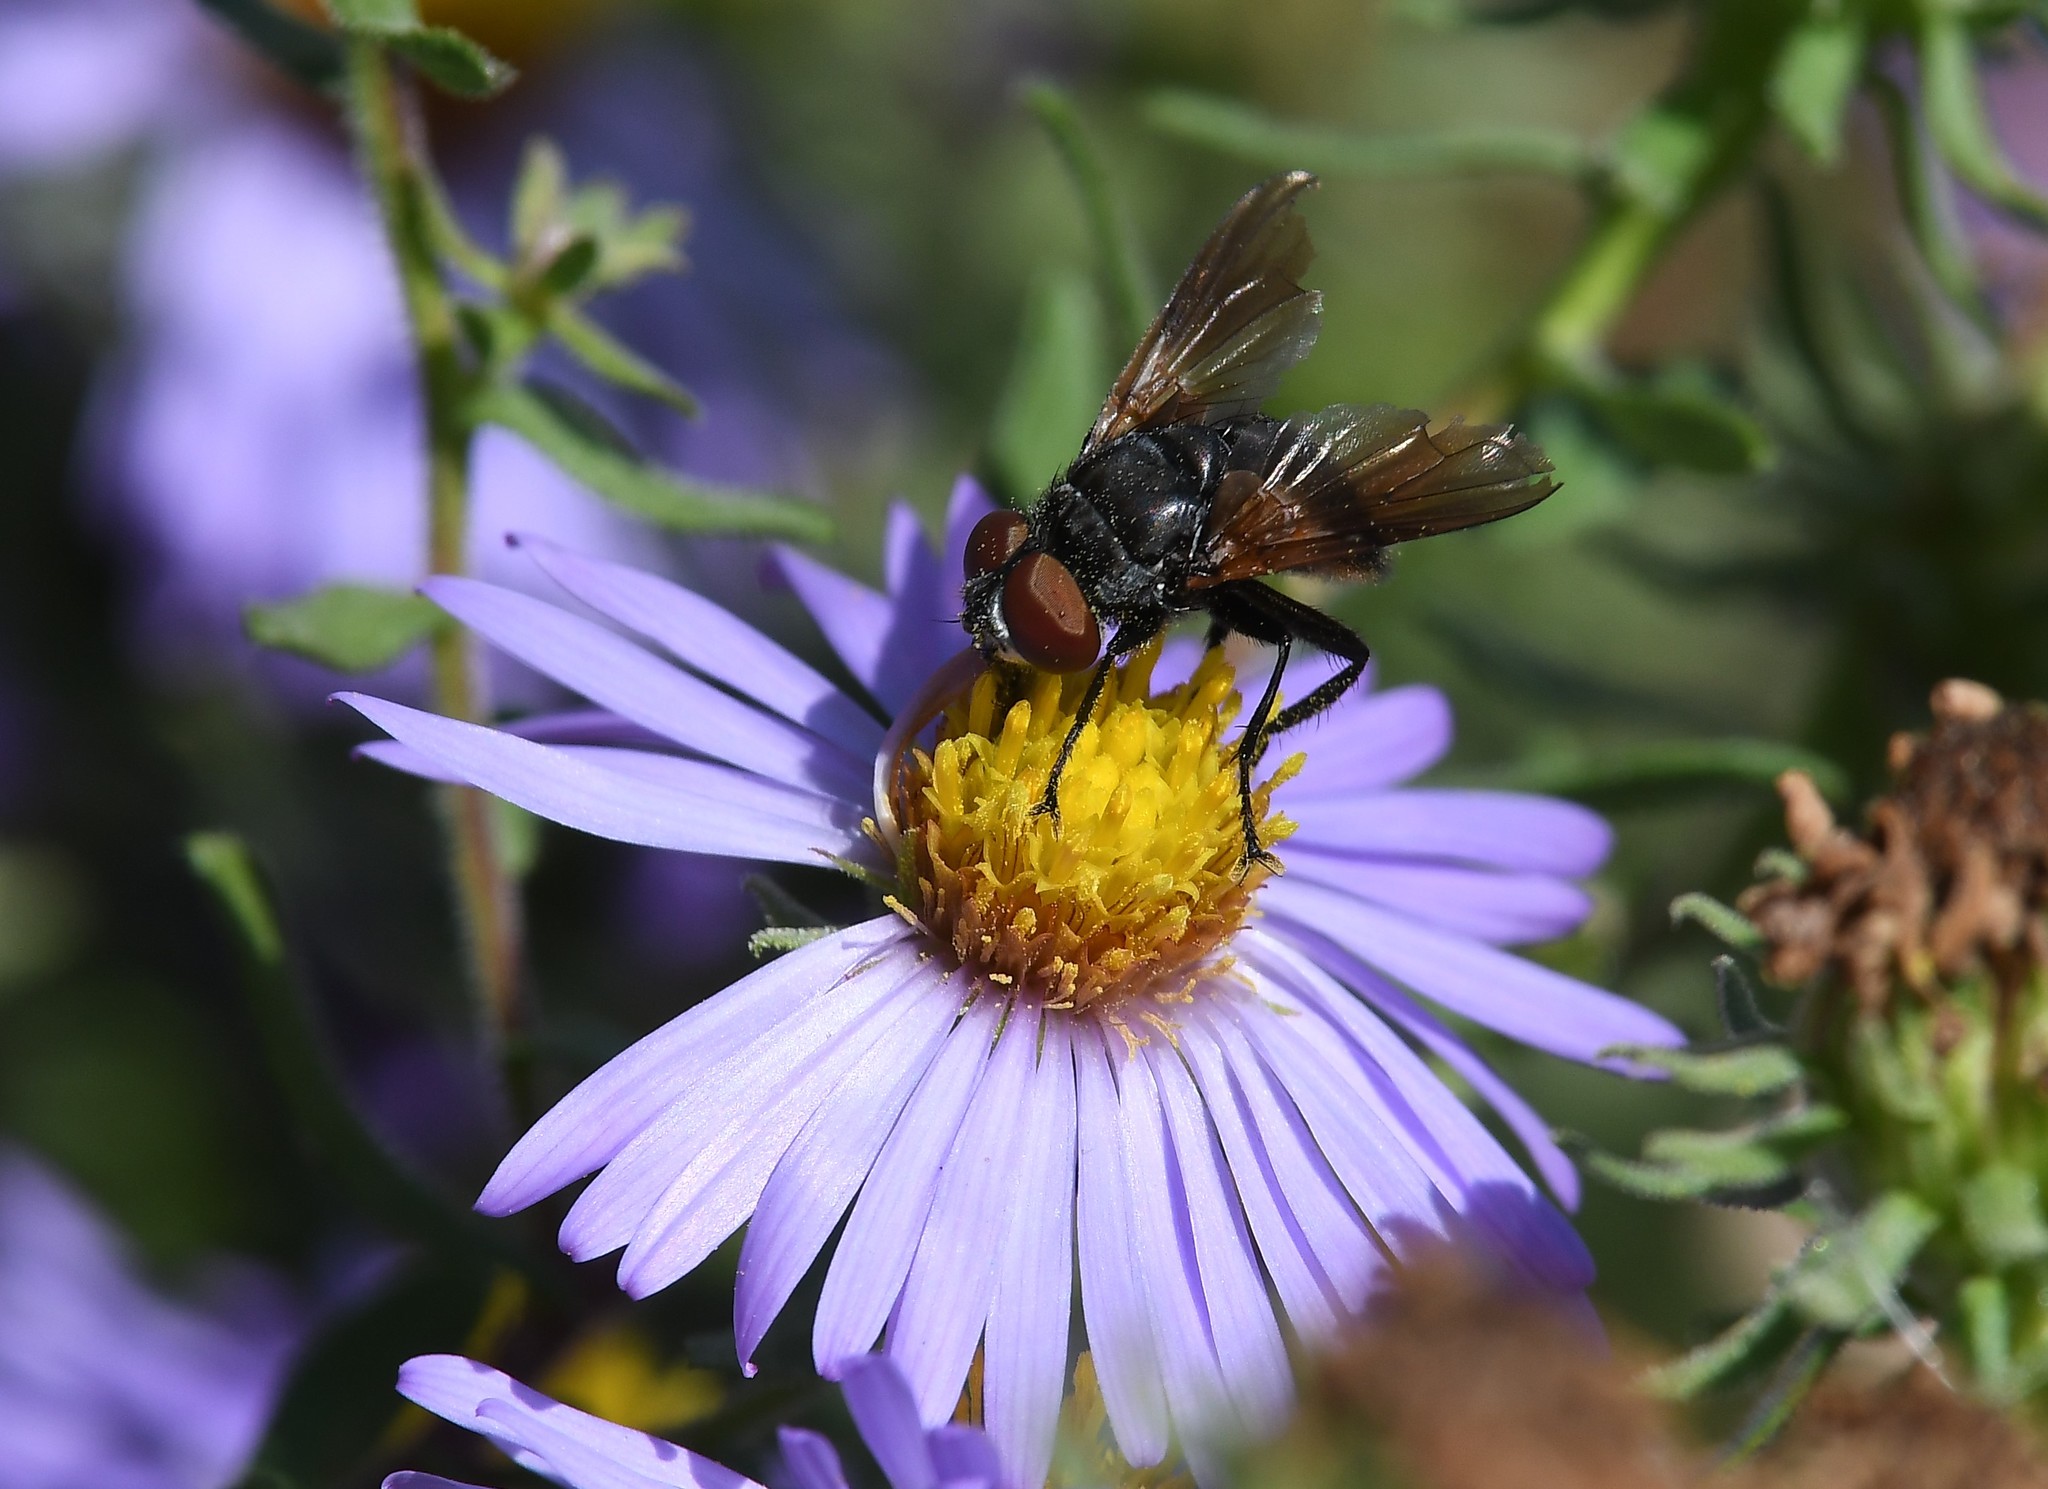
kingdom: Animalia
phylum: Arthropoda
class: Insecta
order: Diptera
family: Tachinidae
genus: Phasia
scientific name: Phasia aurigera
